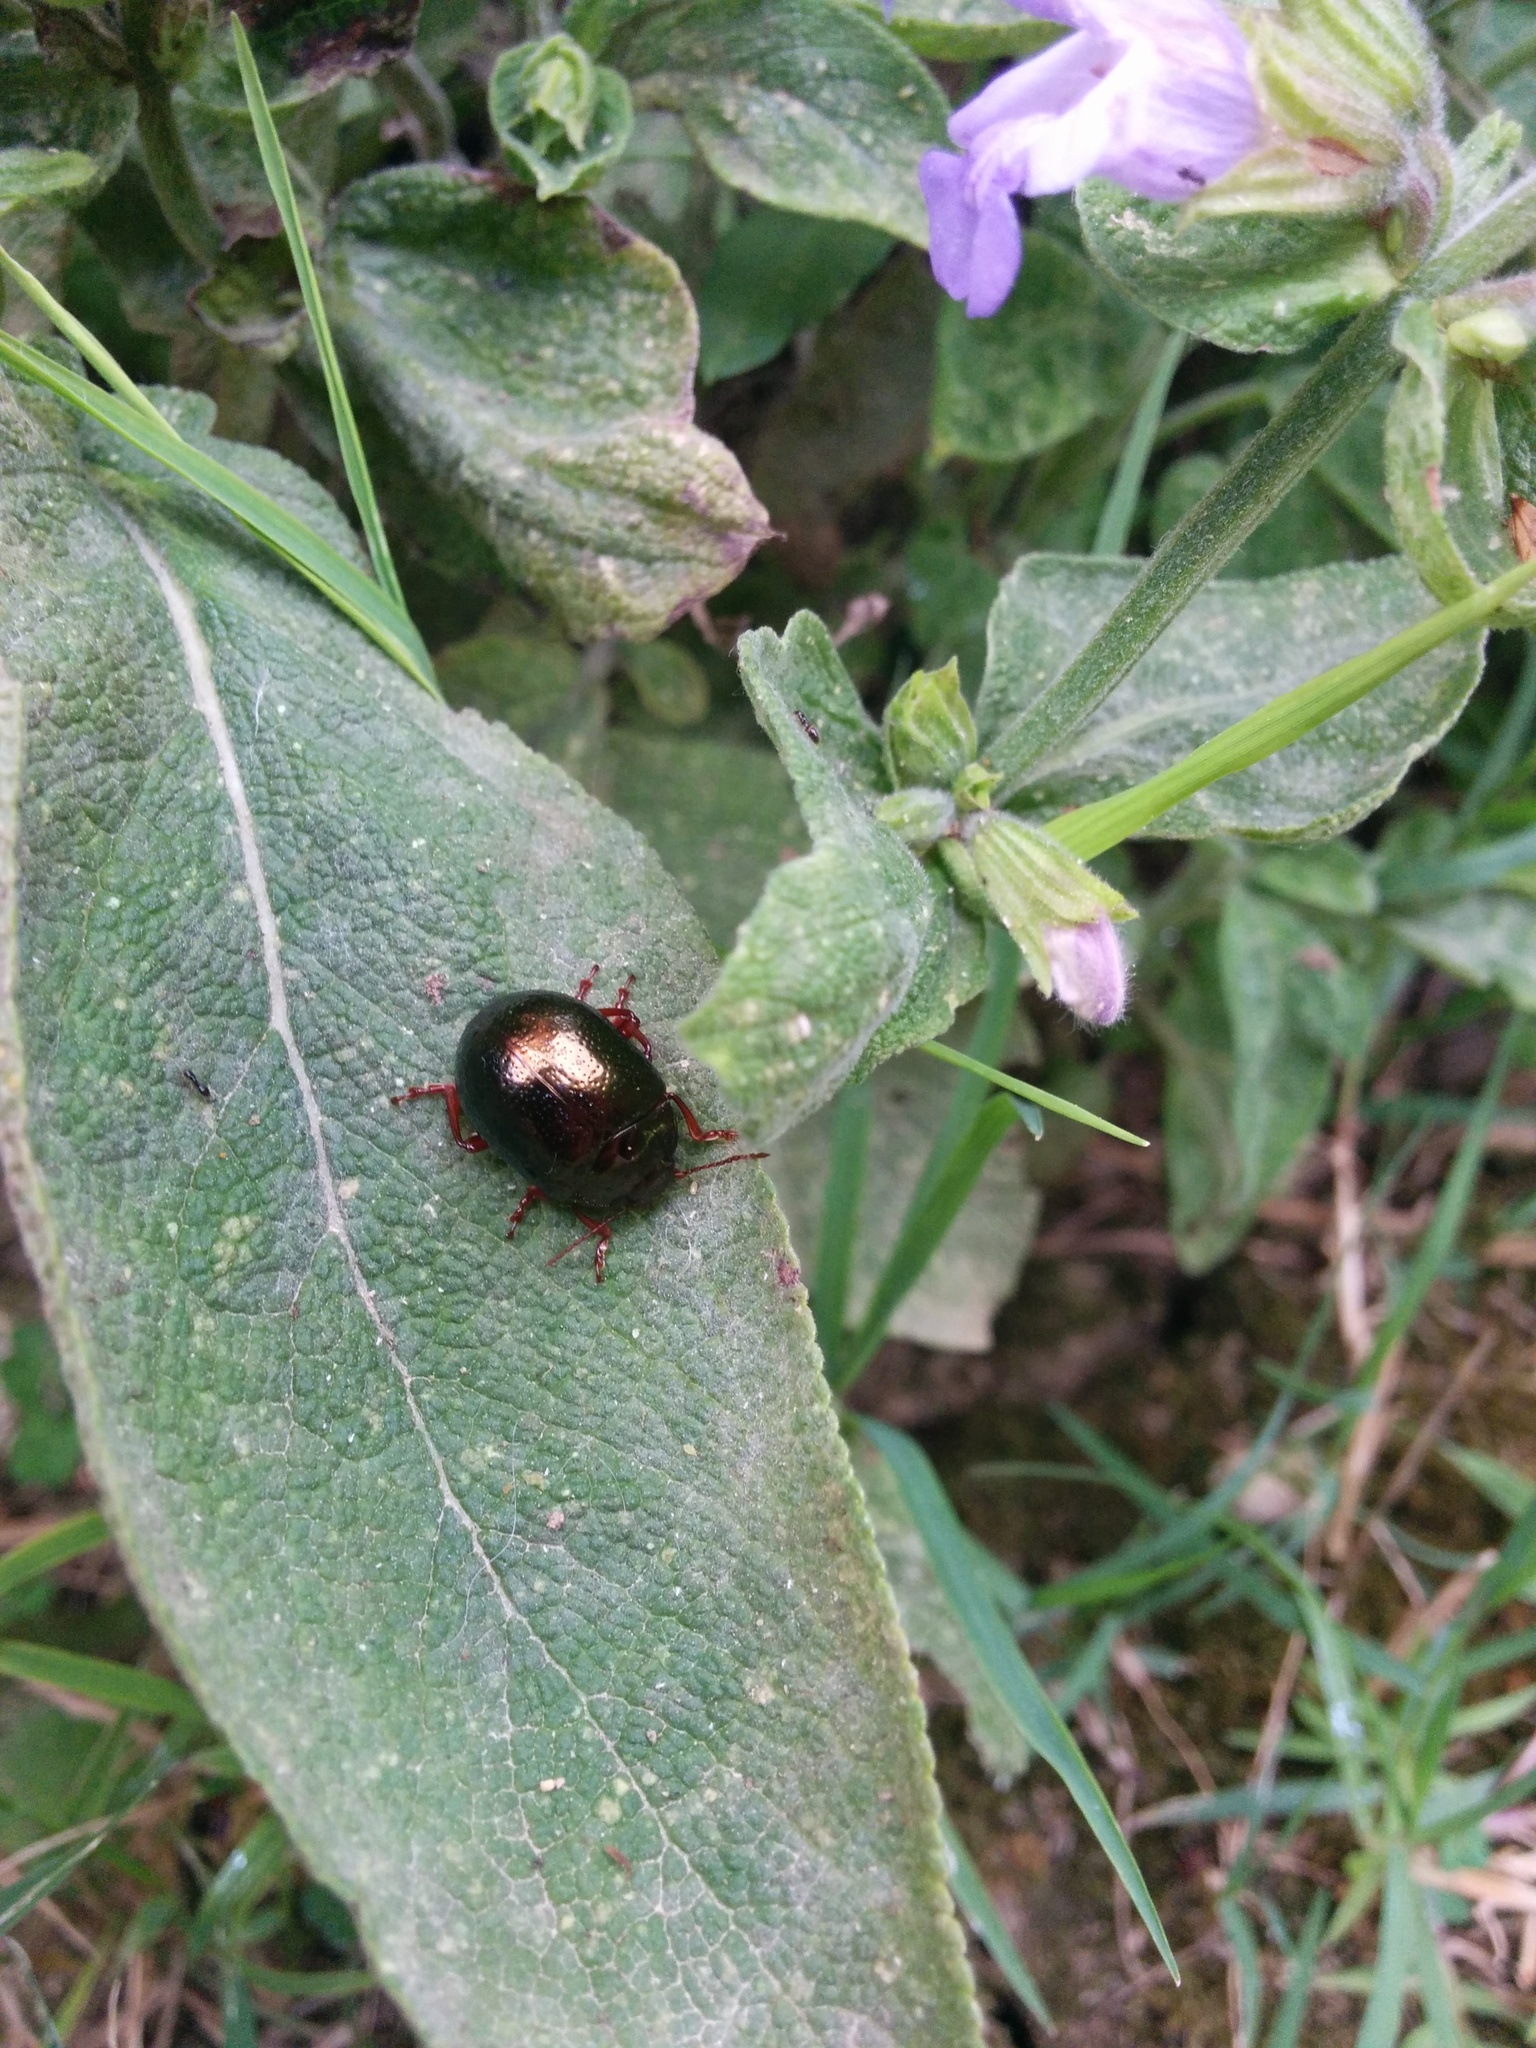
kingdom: Animalia
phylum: Arthropoda
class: Insecta
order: Coleoptera
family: Chrysomelidae
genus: Chrysolina
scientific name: Chrysolina bankii
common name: Leaf beetle
